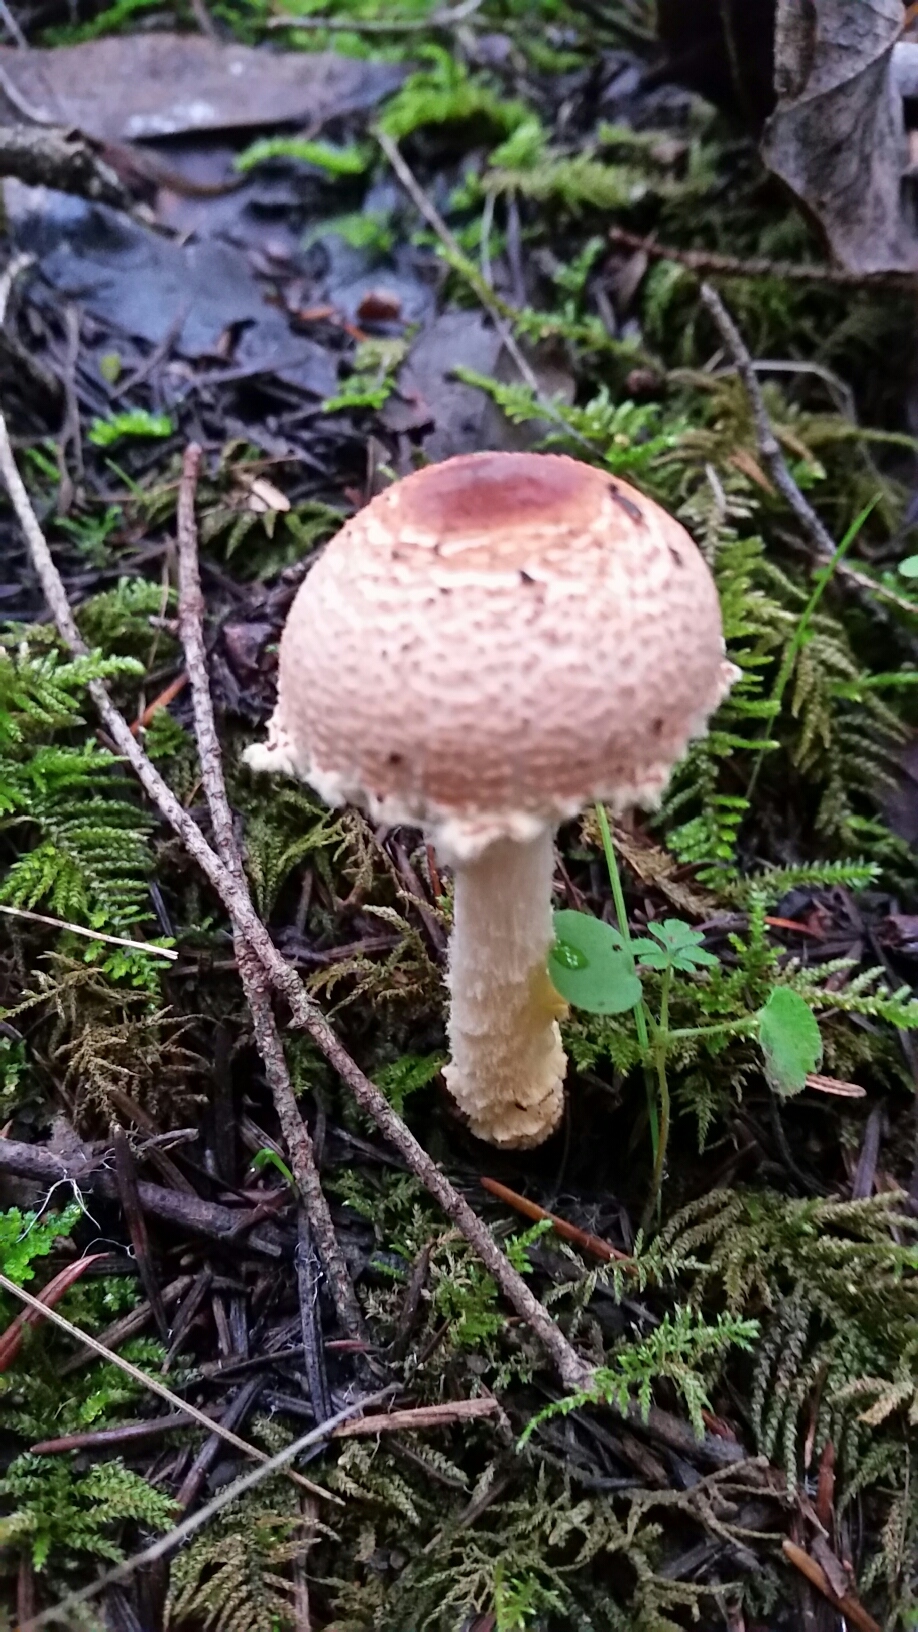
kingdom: Fungi
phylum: Basidiomycota
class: Agaricomycetes
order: Agaricales
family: Agaricaceae
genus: Lepiota
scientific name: Lepiota magnispora
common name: Yellowfoot dapperling
